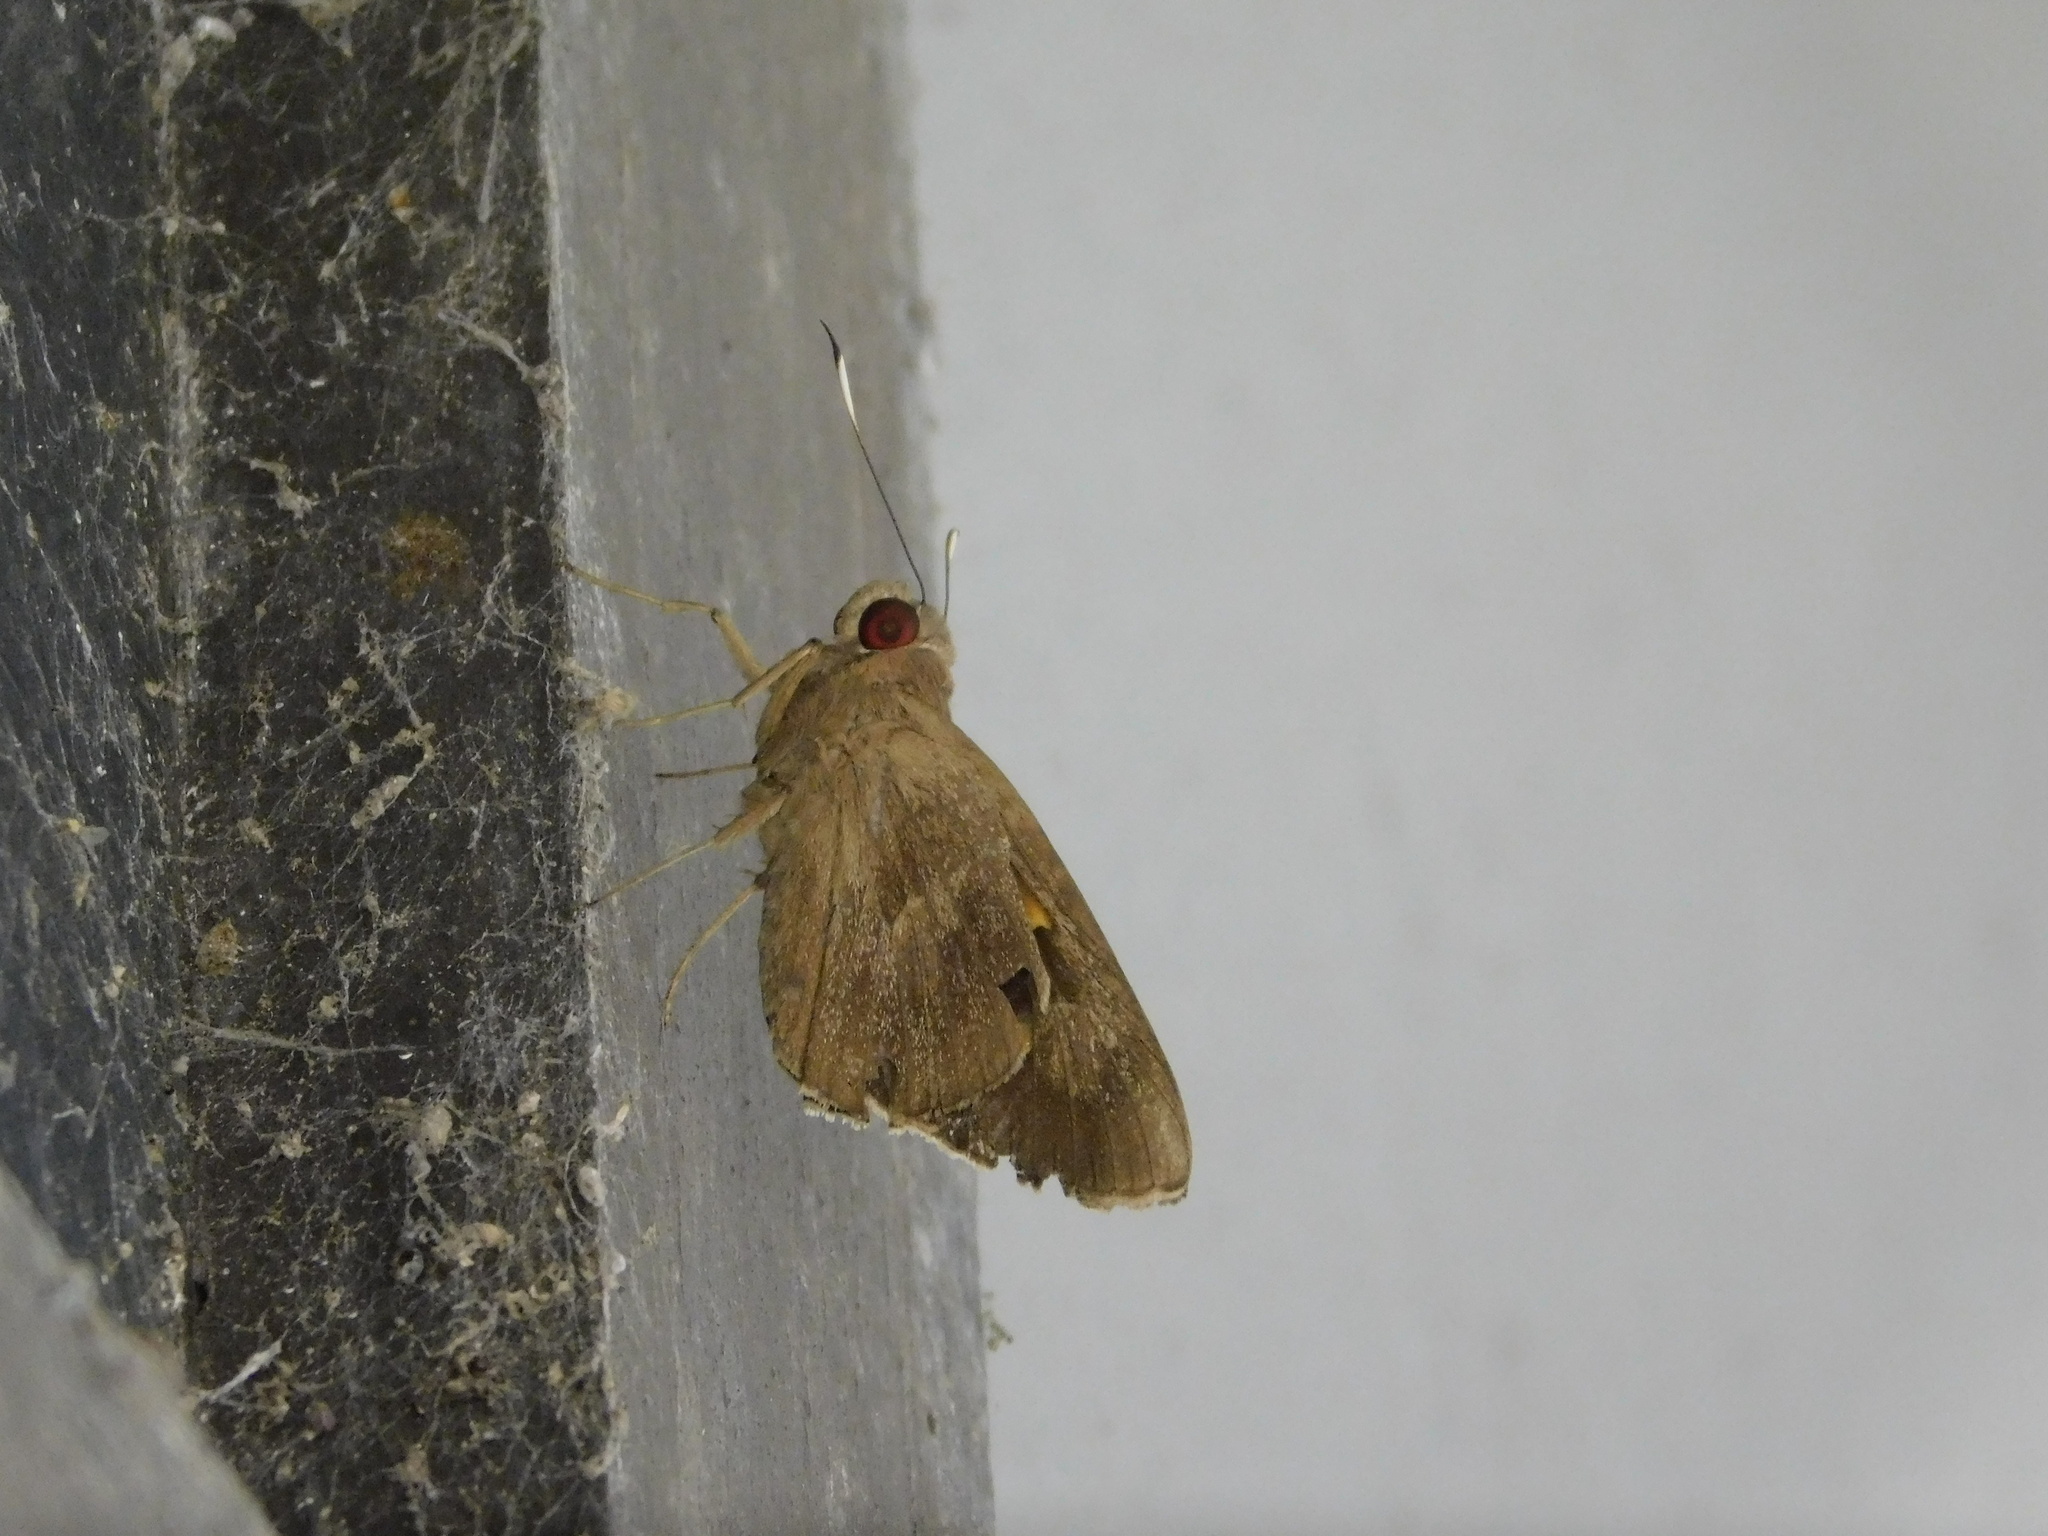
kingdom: Animalia
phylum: Arthropoda
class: Insecta
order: Lepidoptera
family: Hesperiidae
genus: Erionota
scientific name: Erionota thrax
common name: Banana skipper
